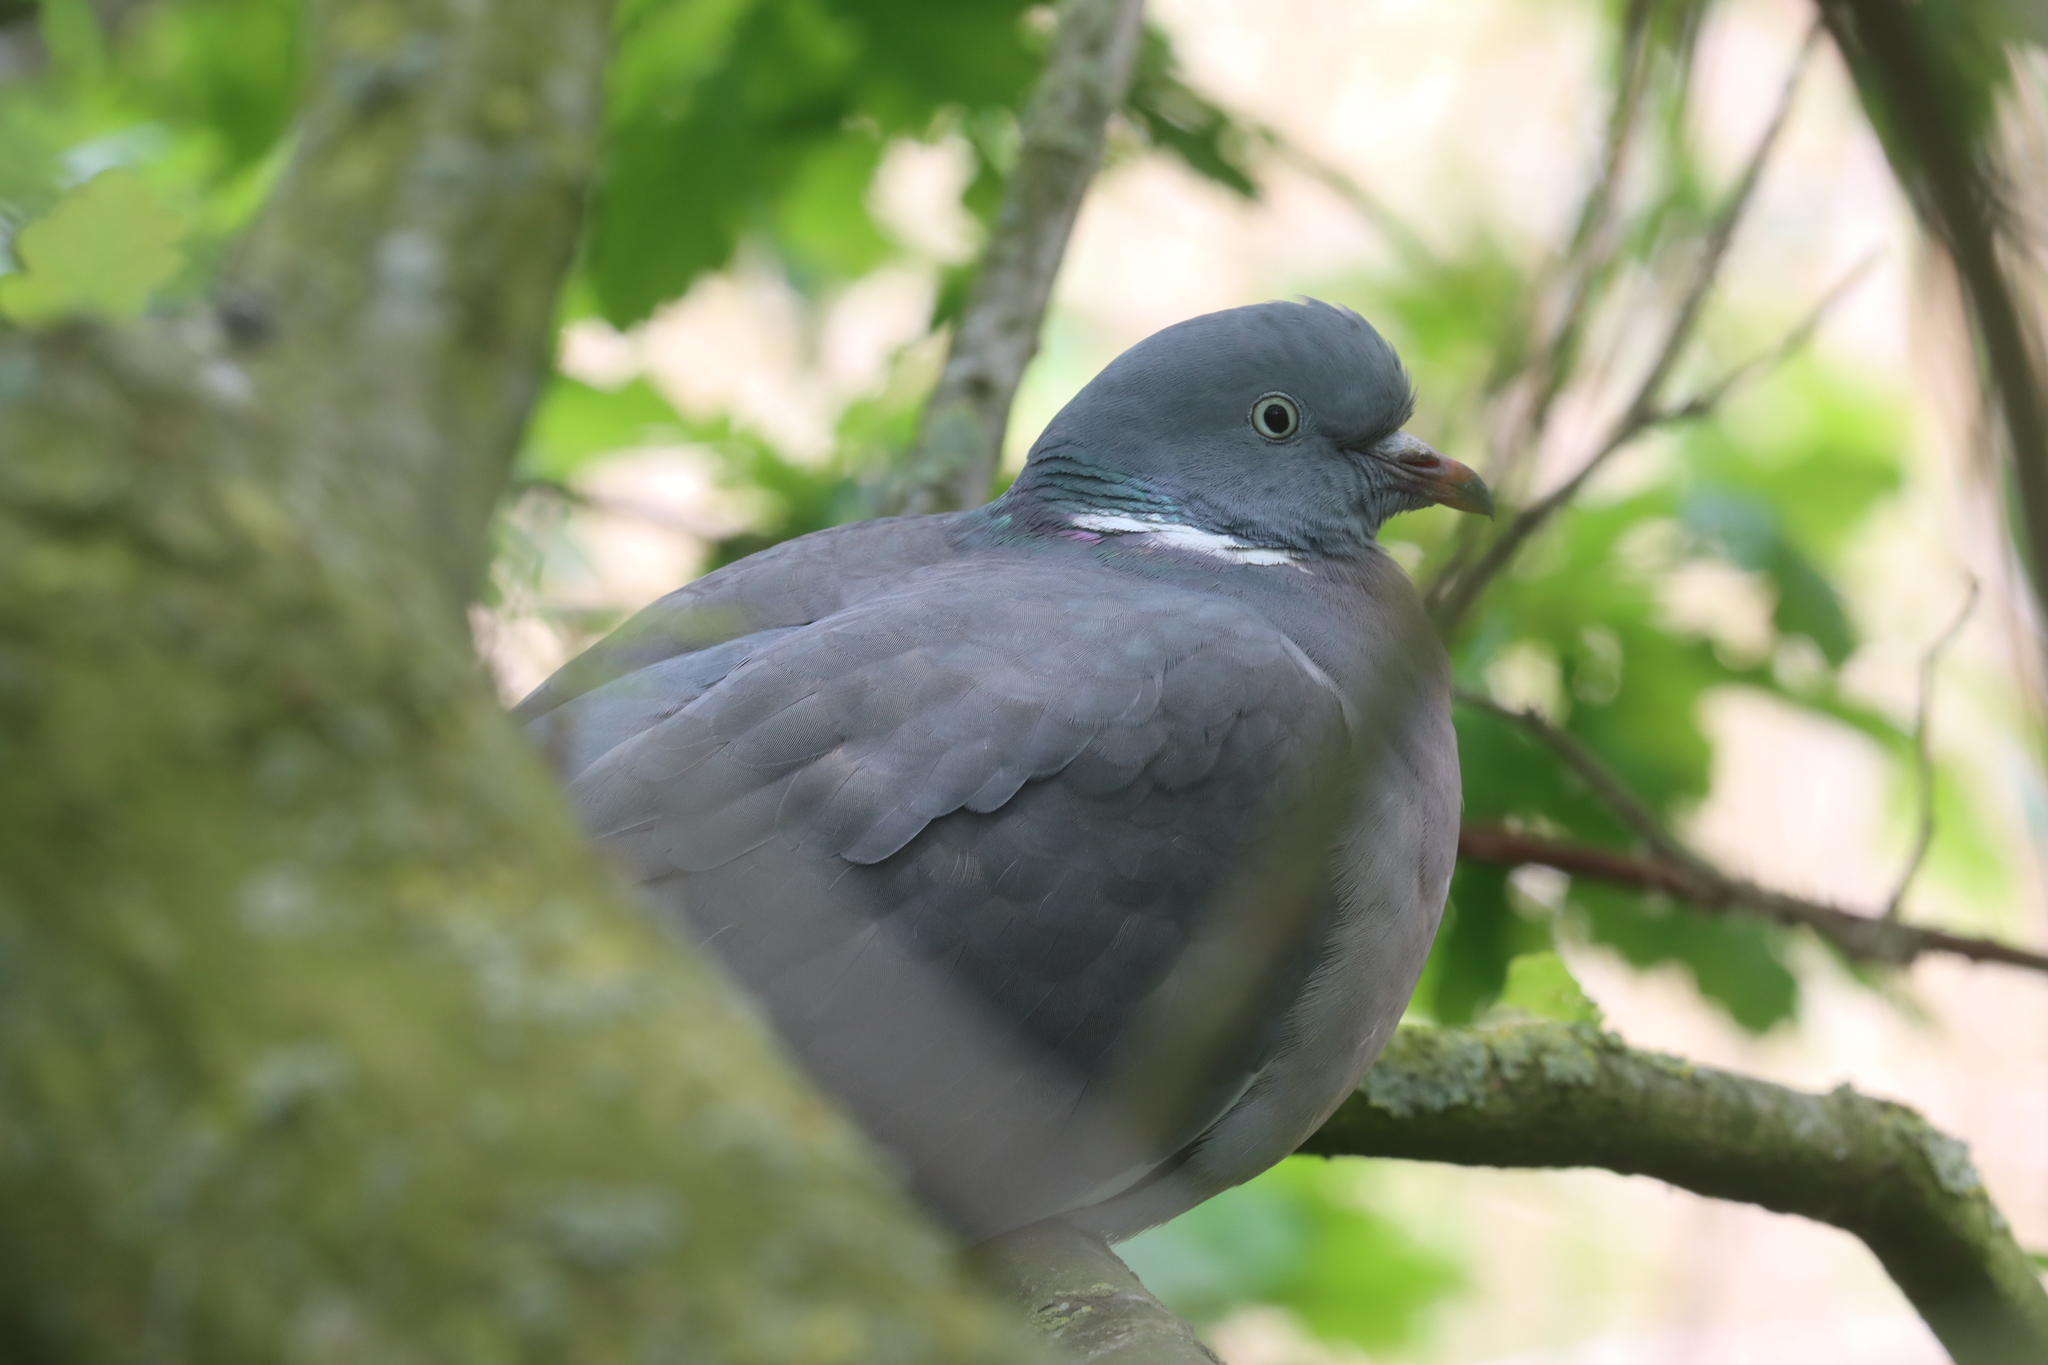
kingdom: Animalia
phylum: Chordata
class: Aves
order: Columbiformes
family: Columbidae
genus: Columba
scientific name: Columba palumbus
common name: Common wood pigeon
